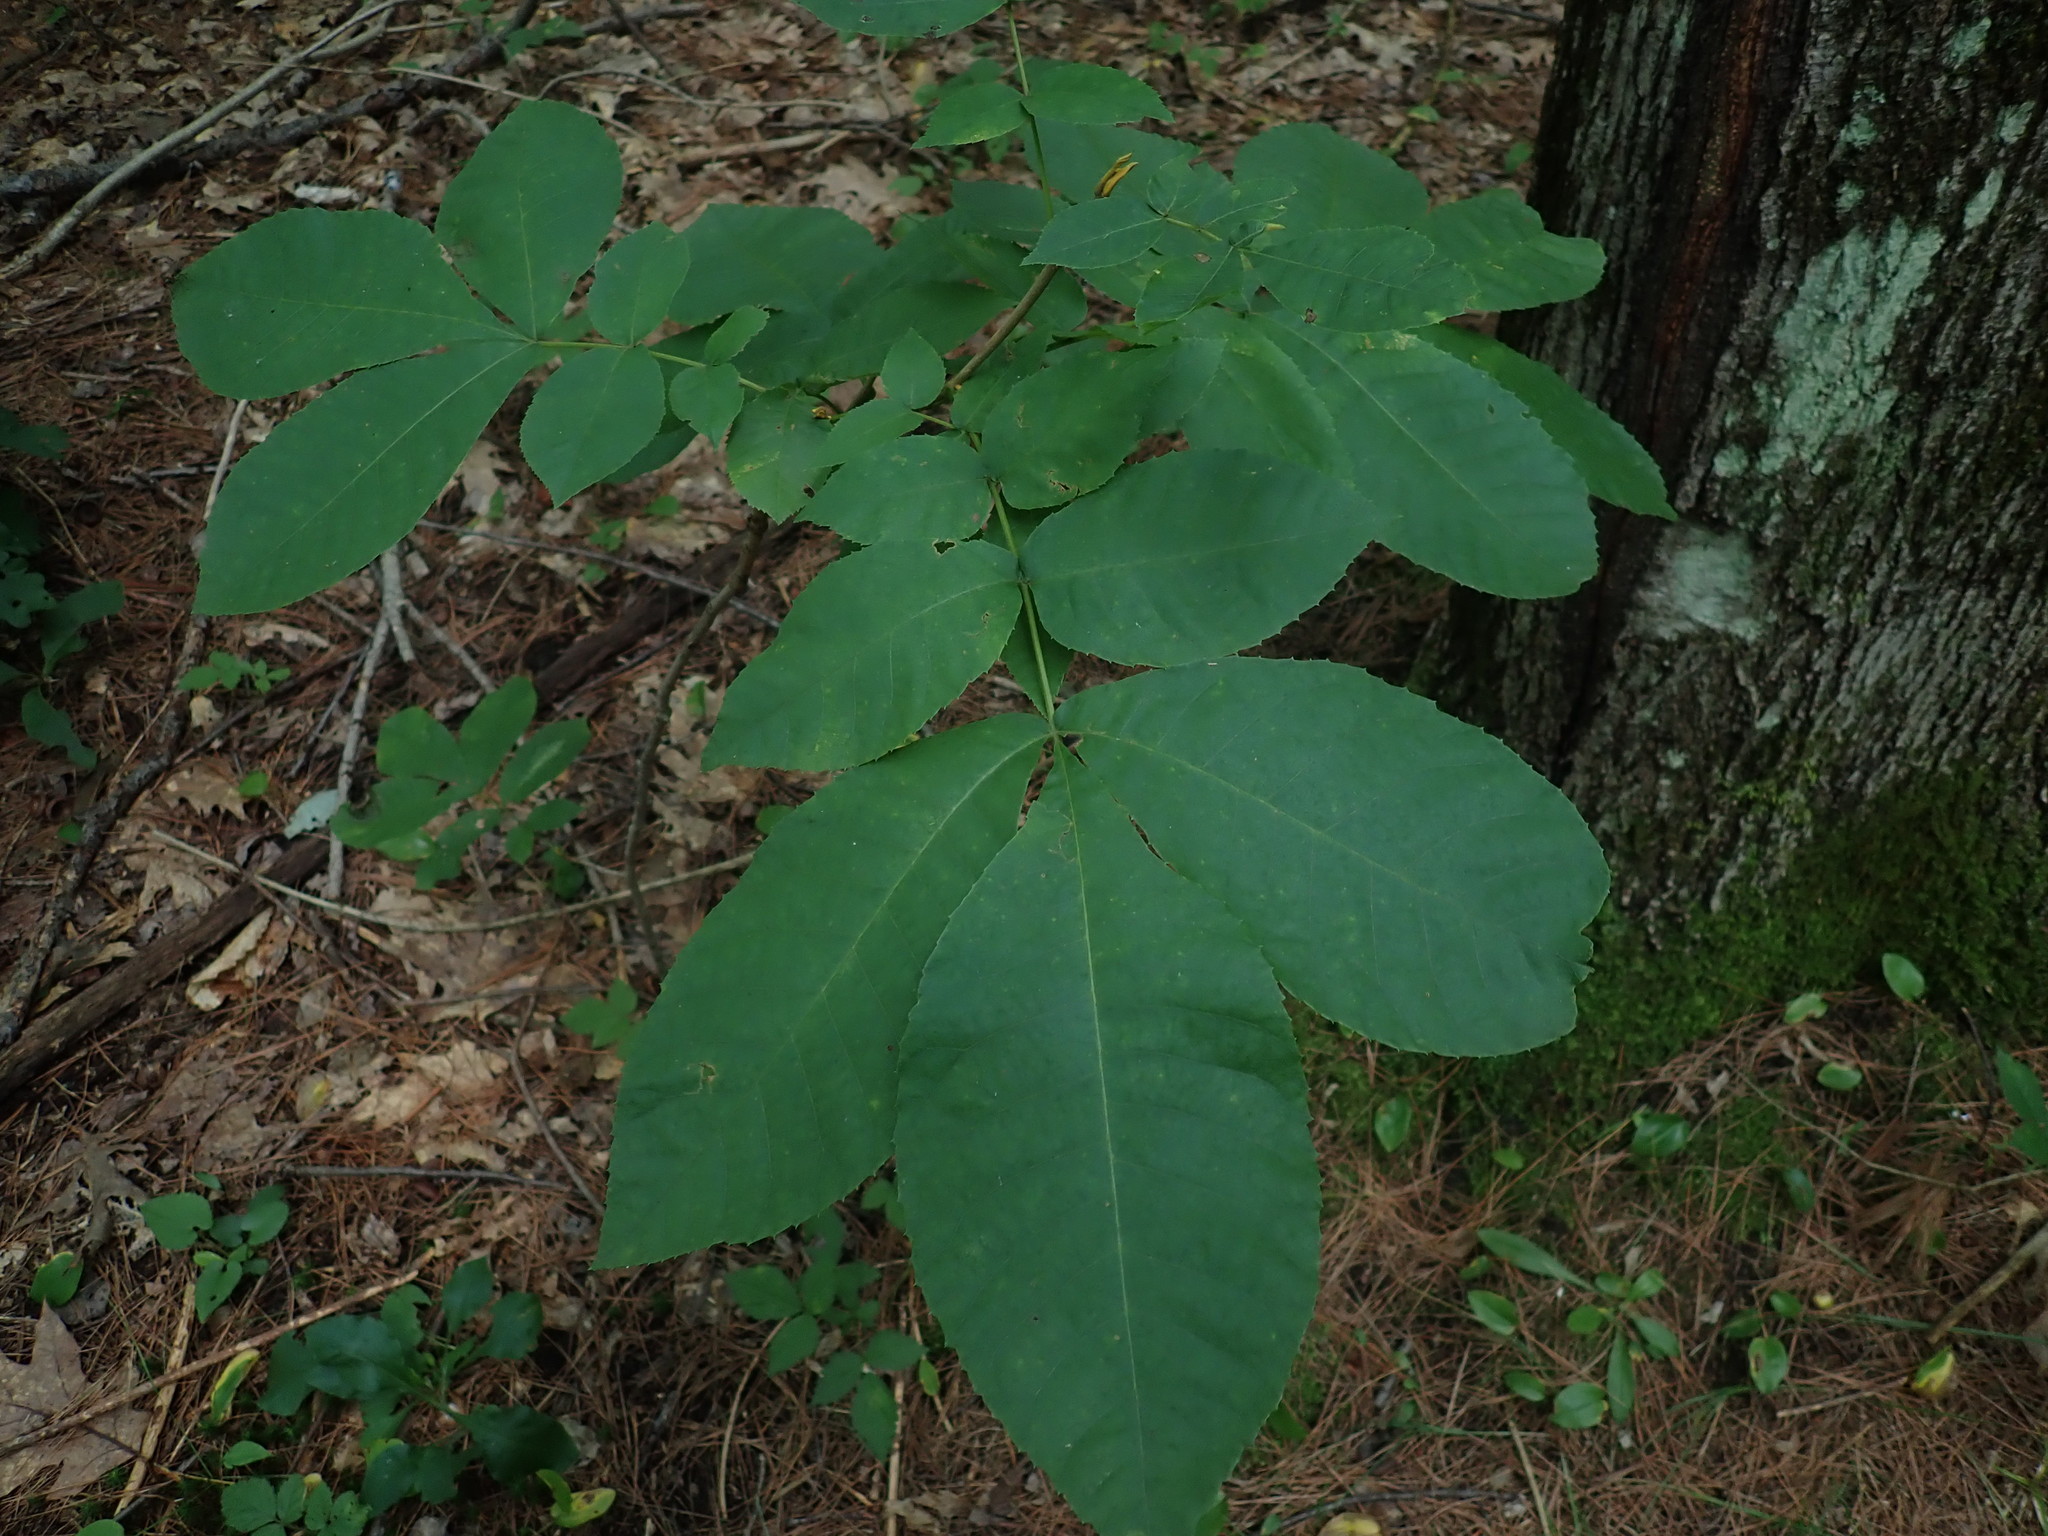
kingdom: Plantae
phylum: Tracheophyta
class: Magnoliopsida
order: Fagales
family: Juglandaceae
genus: Carya
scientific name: Carya cordiformis
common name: Bitternut hickory
